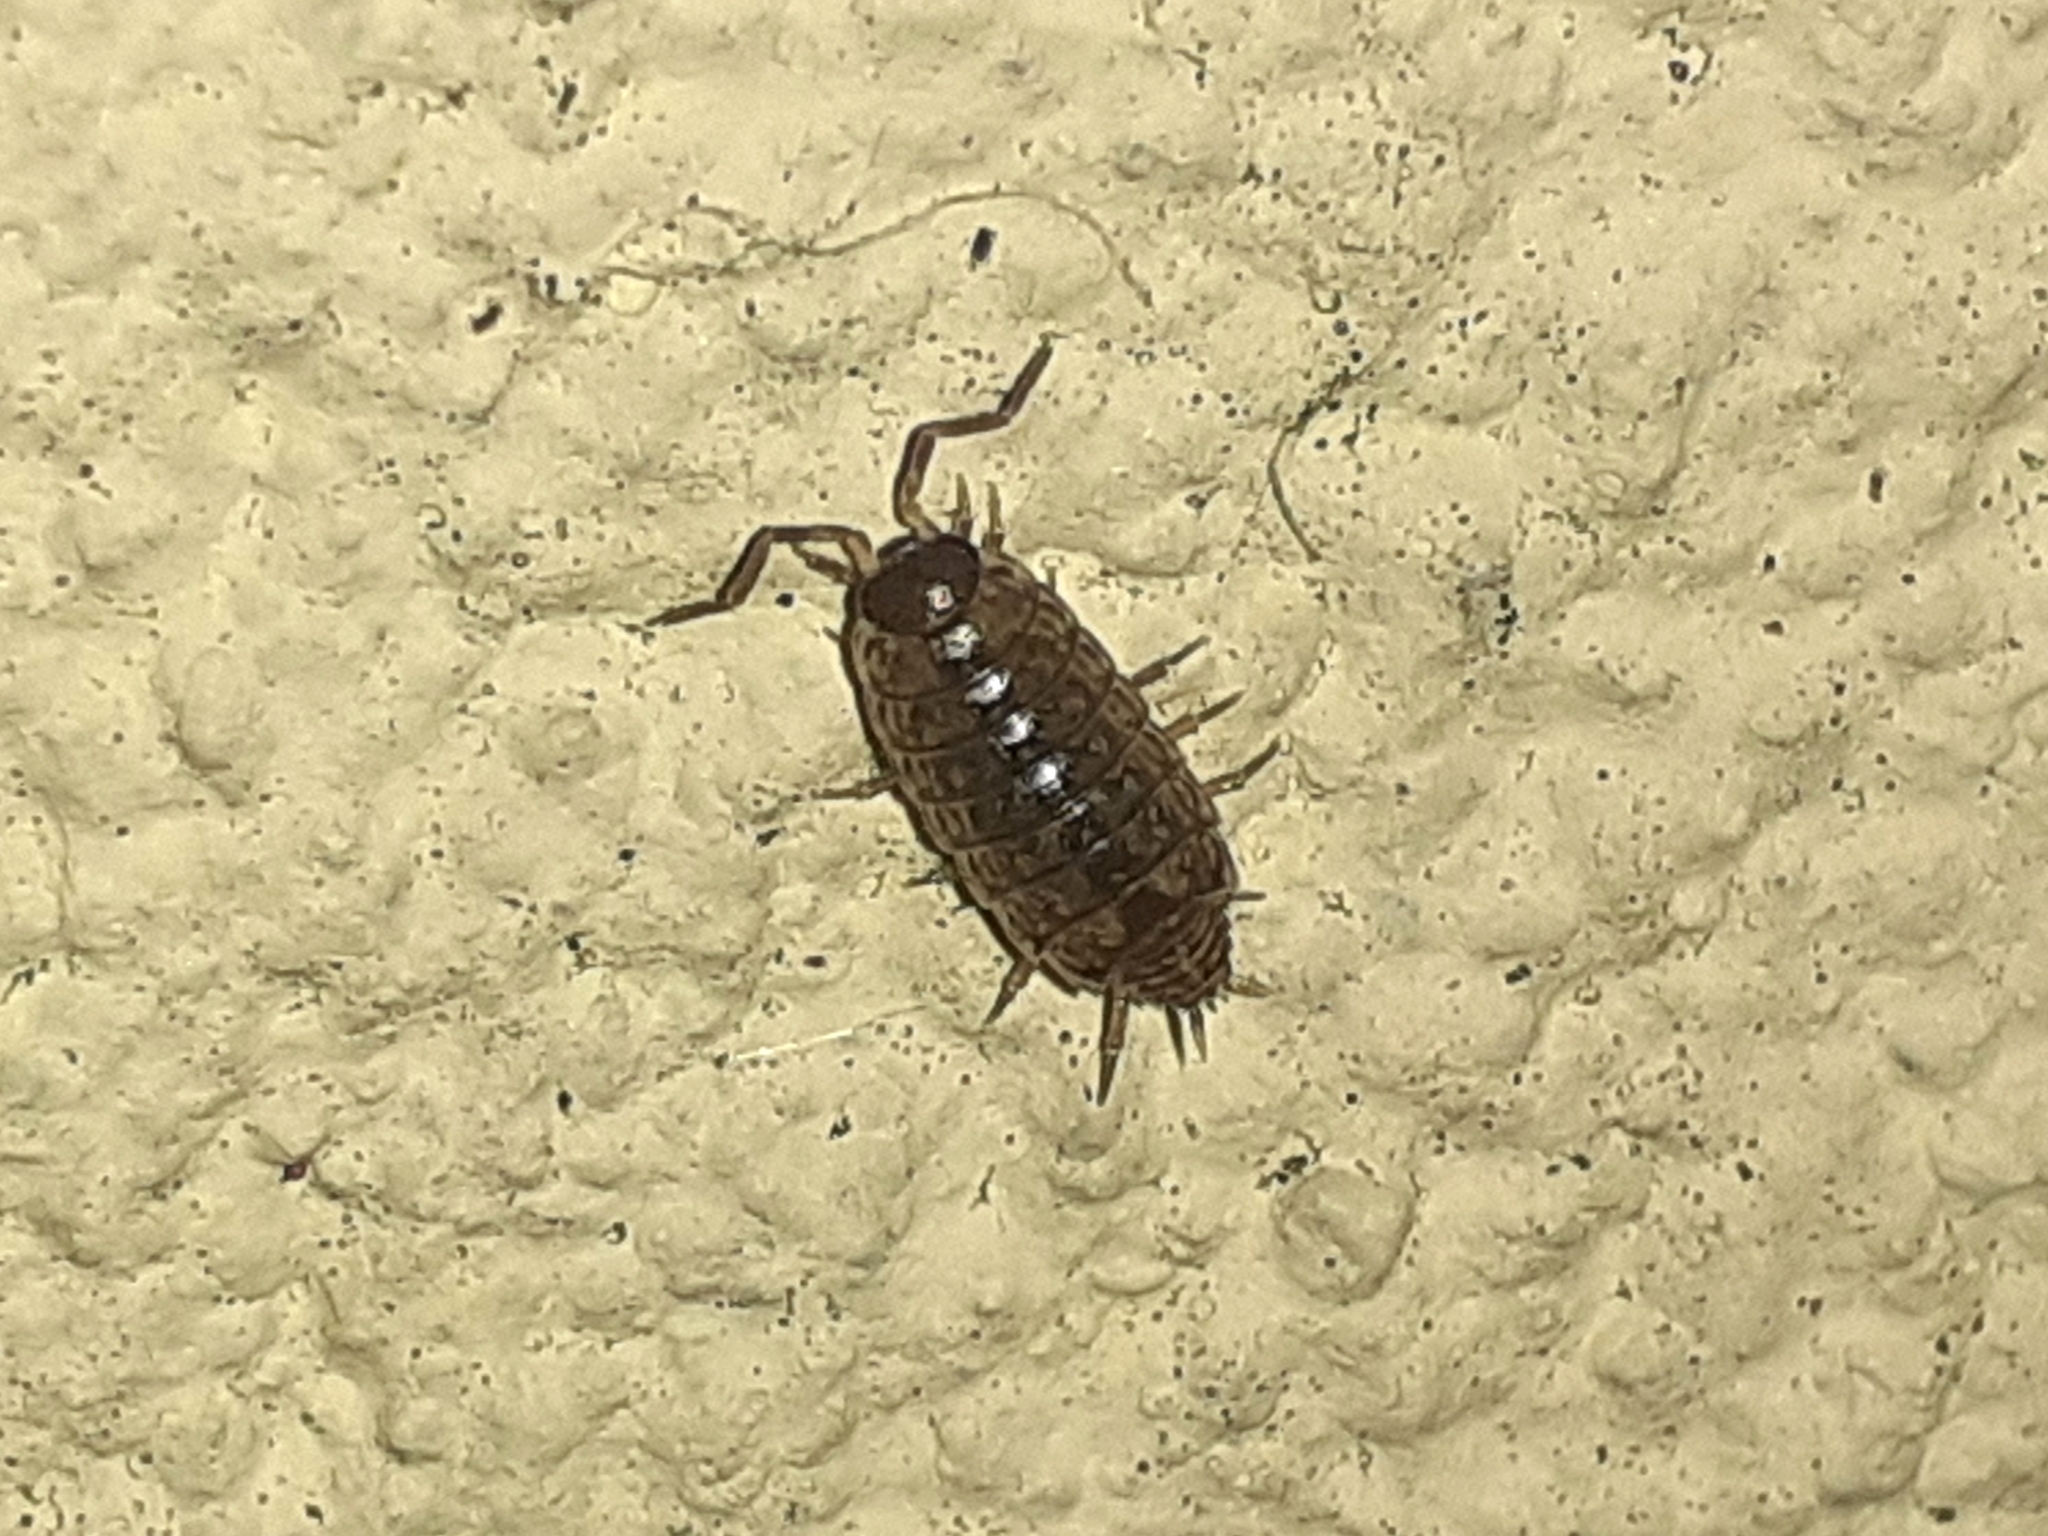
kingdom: Animalia
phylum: Arthropoda
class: Malacostraca
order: Isopoda
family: Philosciidae
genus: Philoscia
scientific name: Philoscia muscorum
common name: Common striped woodlouse
